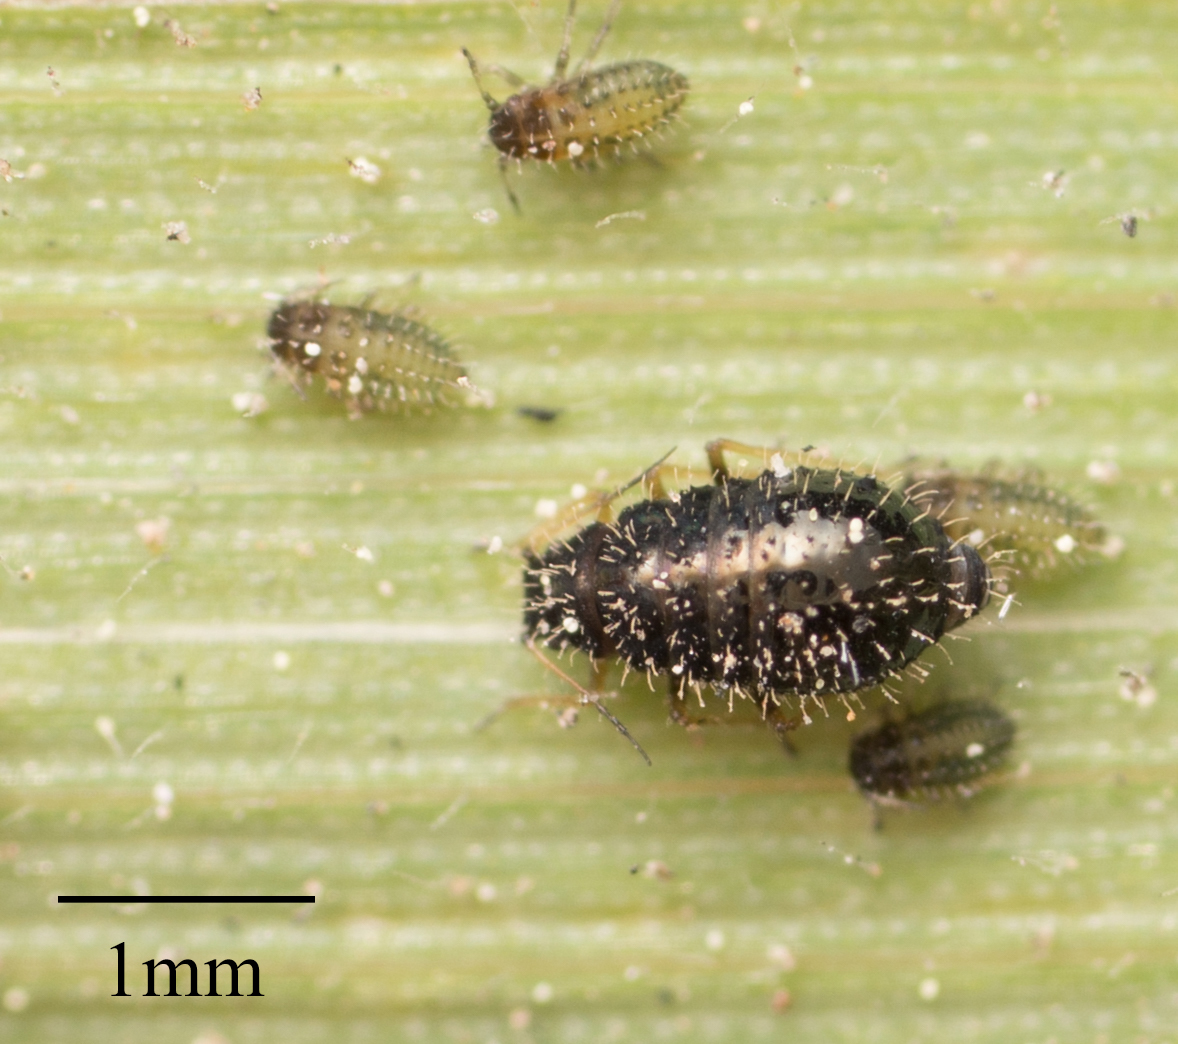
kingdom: Animalia
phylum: Arthropoda
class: Insecta
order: Hemiptera
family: Aphididae
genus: Sipha
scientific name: Sipha maydis
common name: Aphid
